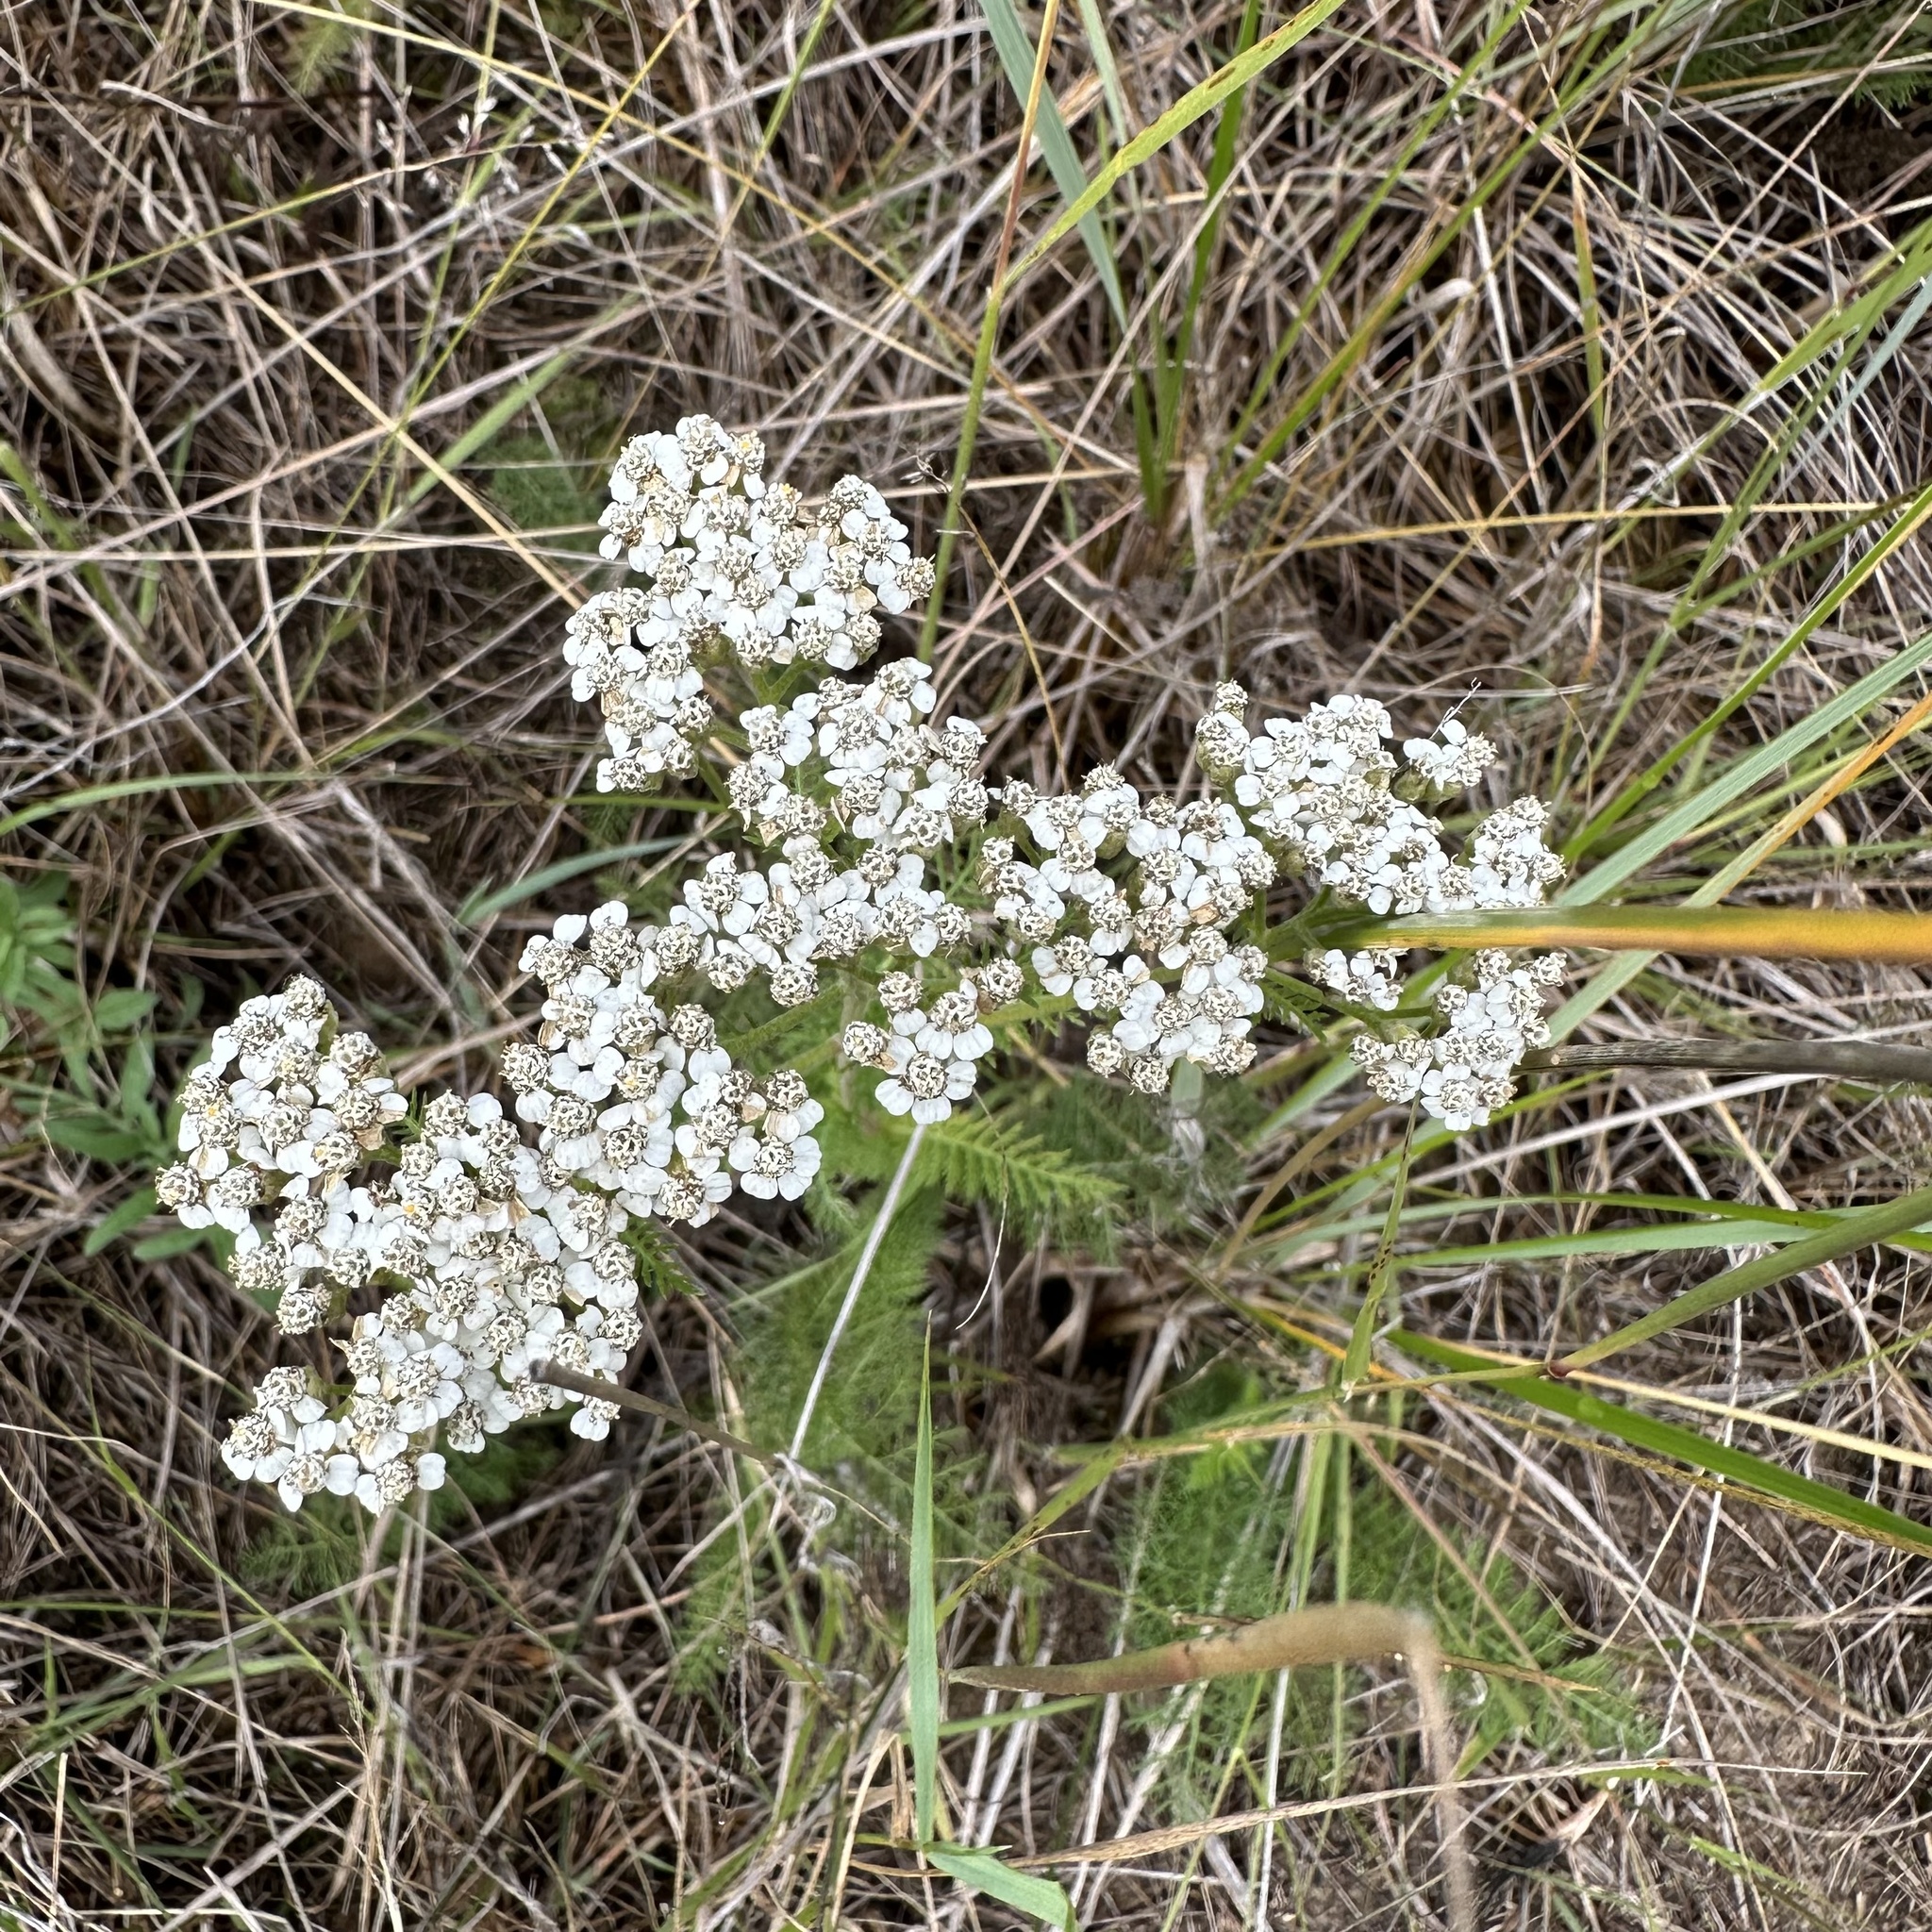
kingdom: Plantae
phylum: Tracheophyta
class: Magnoliopsida
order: Asterales
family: Asteraceae
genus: Achillea
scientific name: Achillea millefolium
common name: Yarrow
